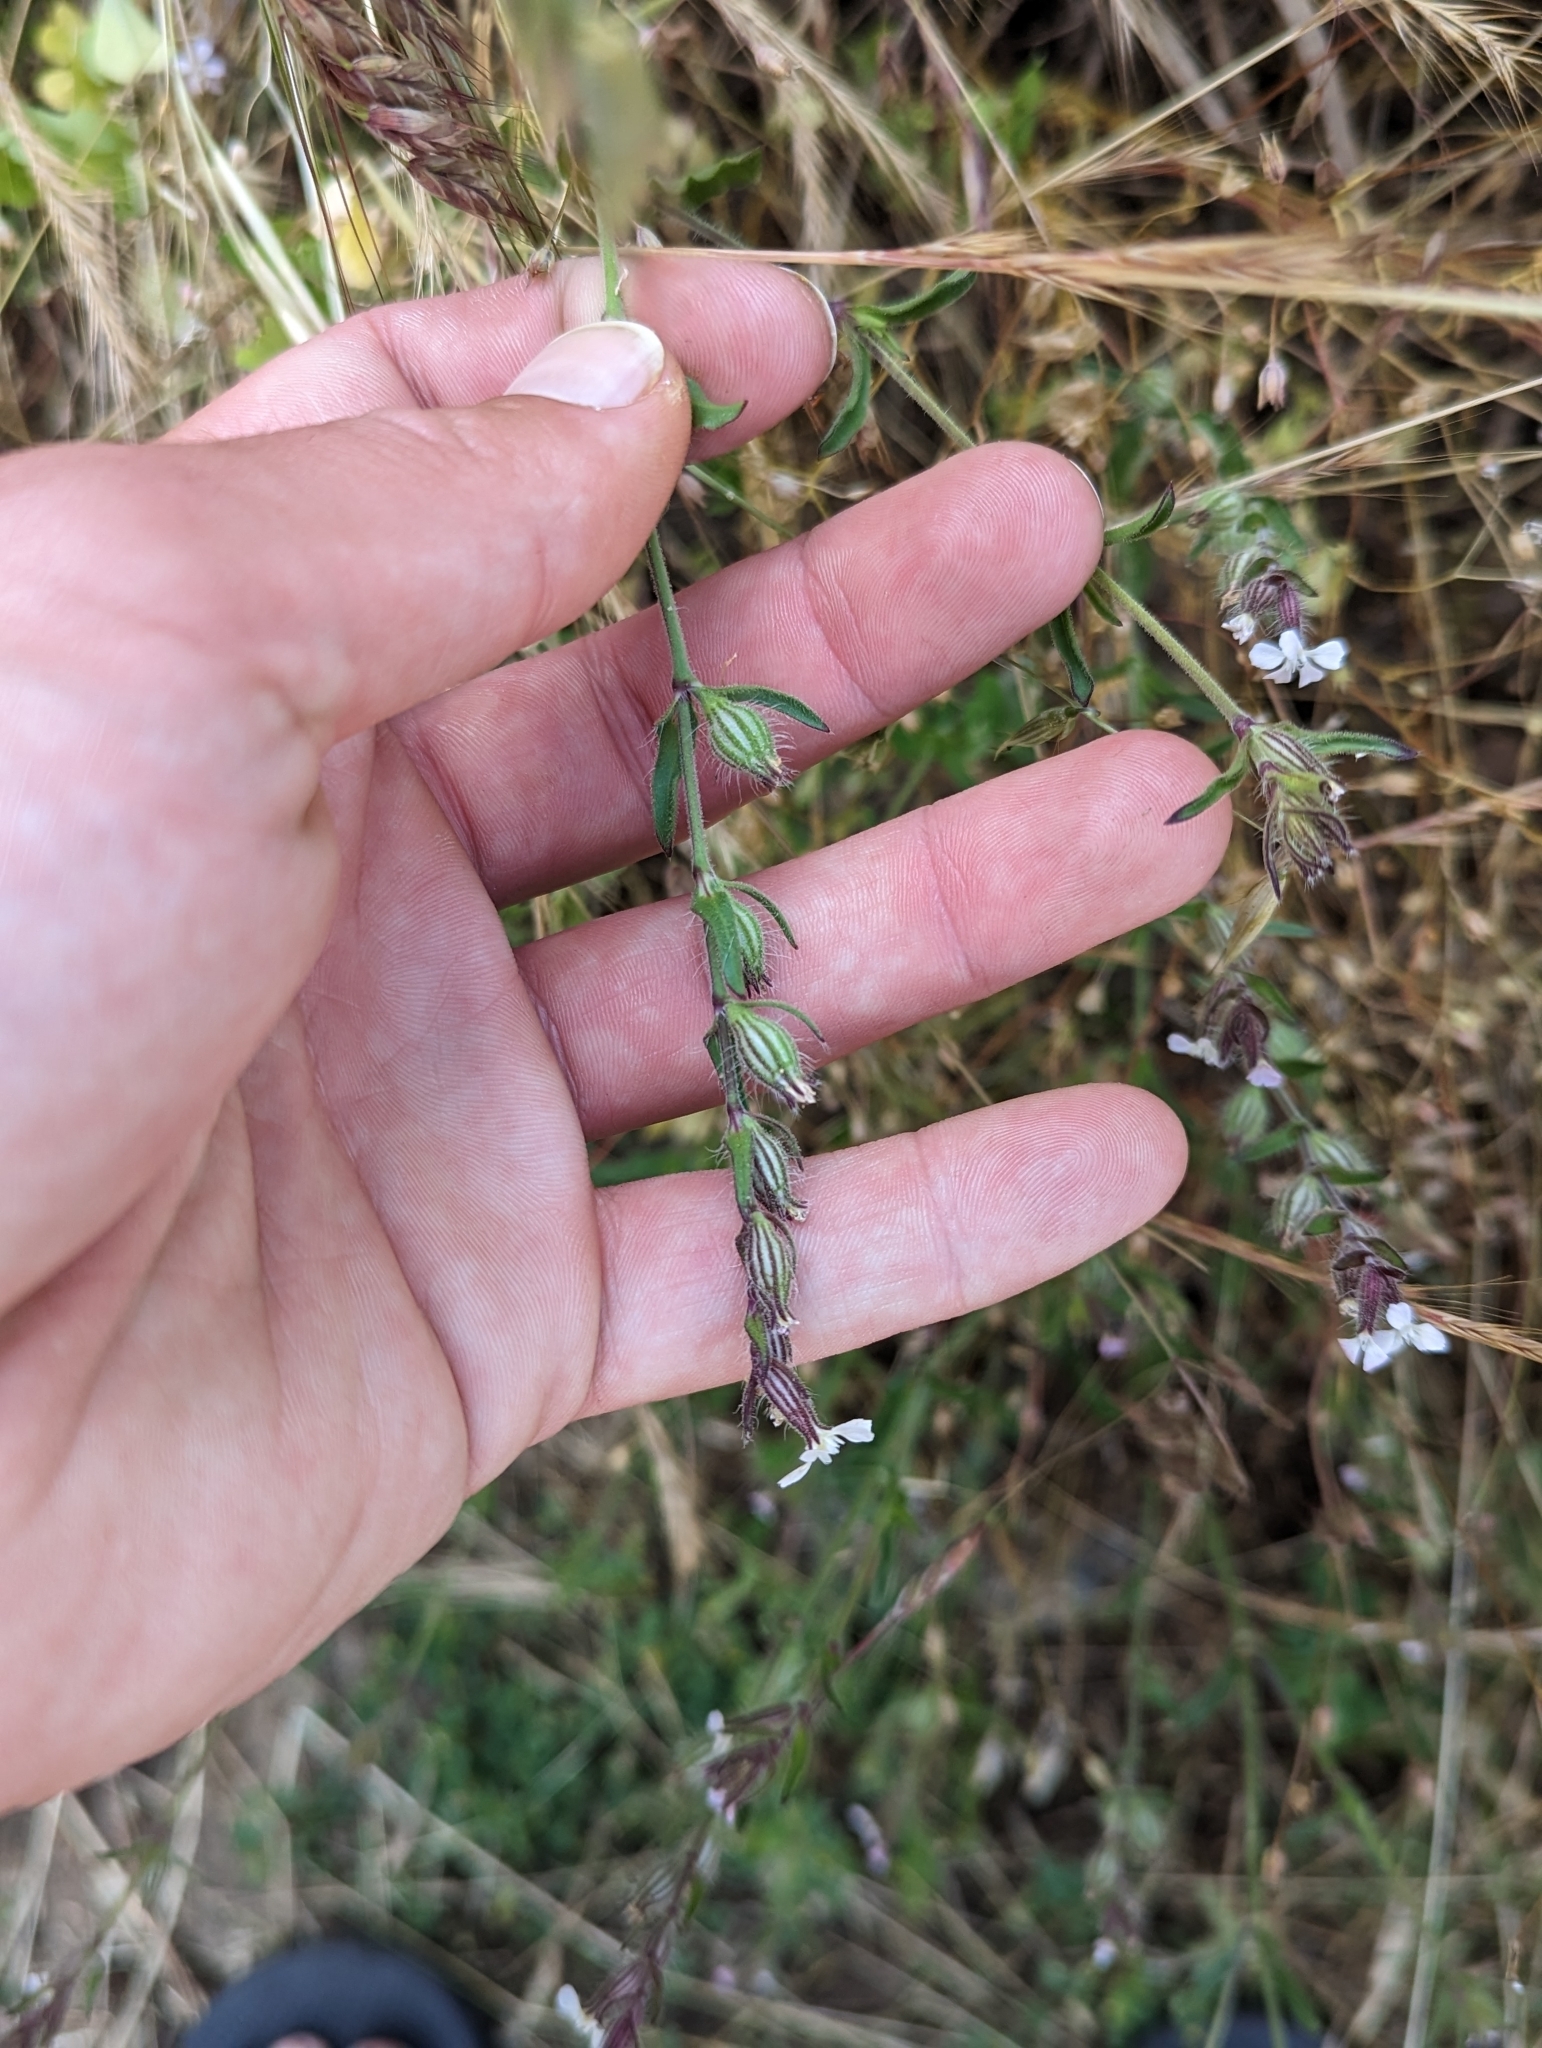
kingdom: Plantae
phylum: Tracheophyta
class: Magnoliopsida
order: Caryophyllales
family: Caryophyllaceae
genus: Silene
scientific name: Silene gallica
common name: Small-flowered catchfly
